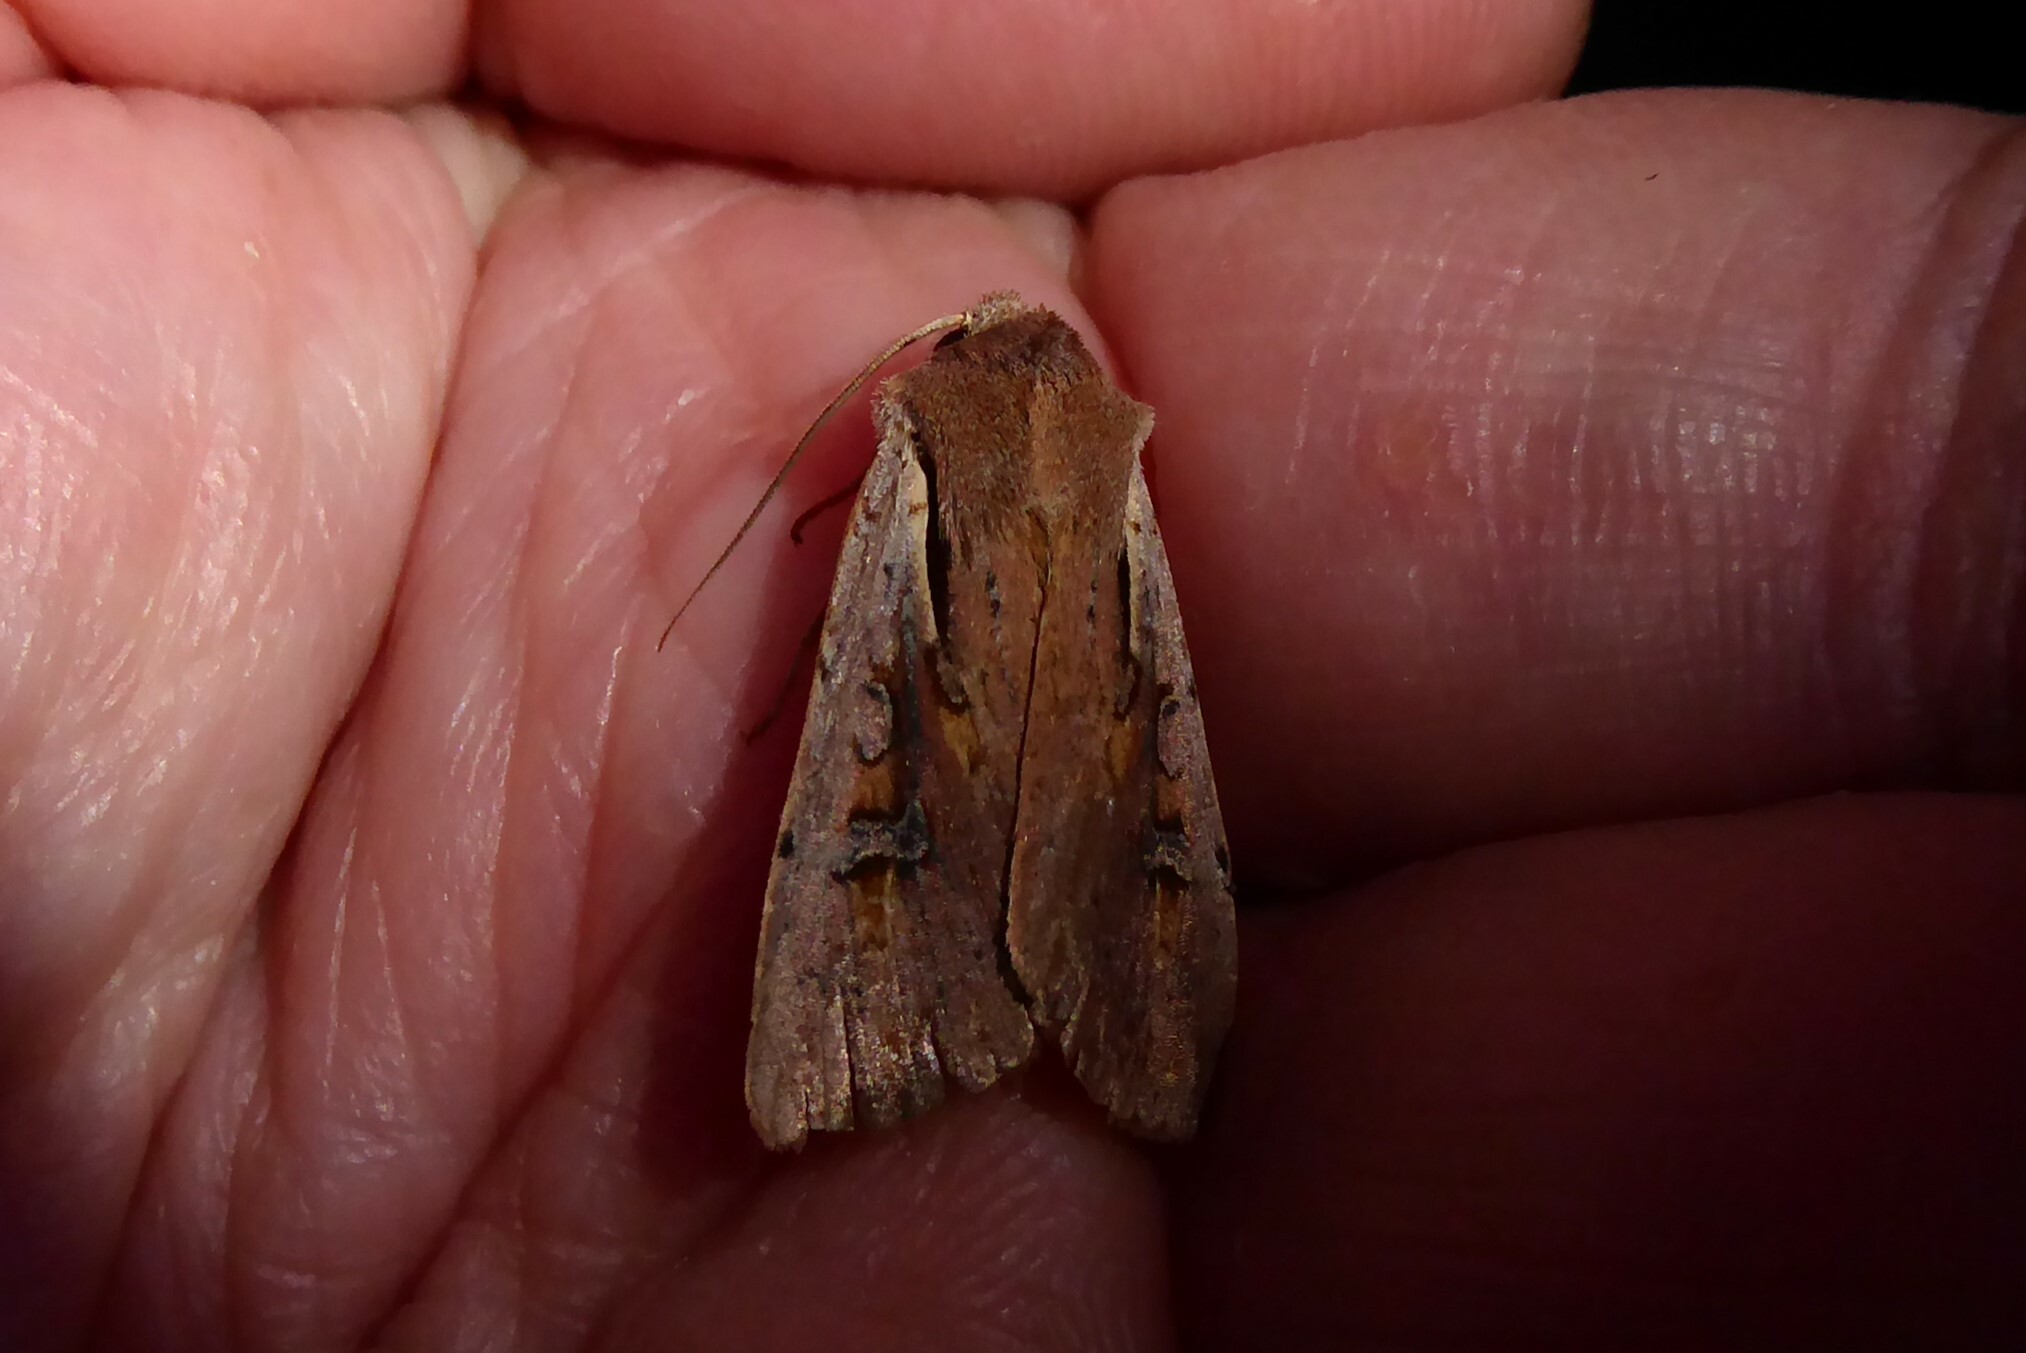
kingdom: Animalia
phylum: Arthropoda
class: Insecta
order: Lepidoptera
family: Noctuidae
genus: Ichneutica
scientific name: Ichneutica atristriga
